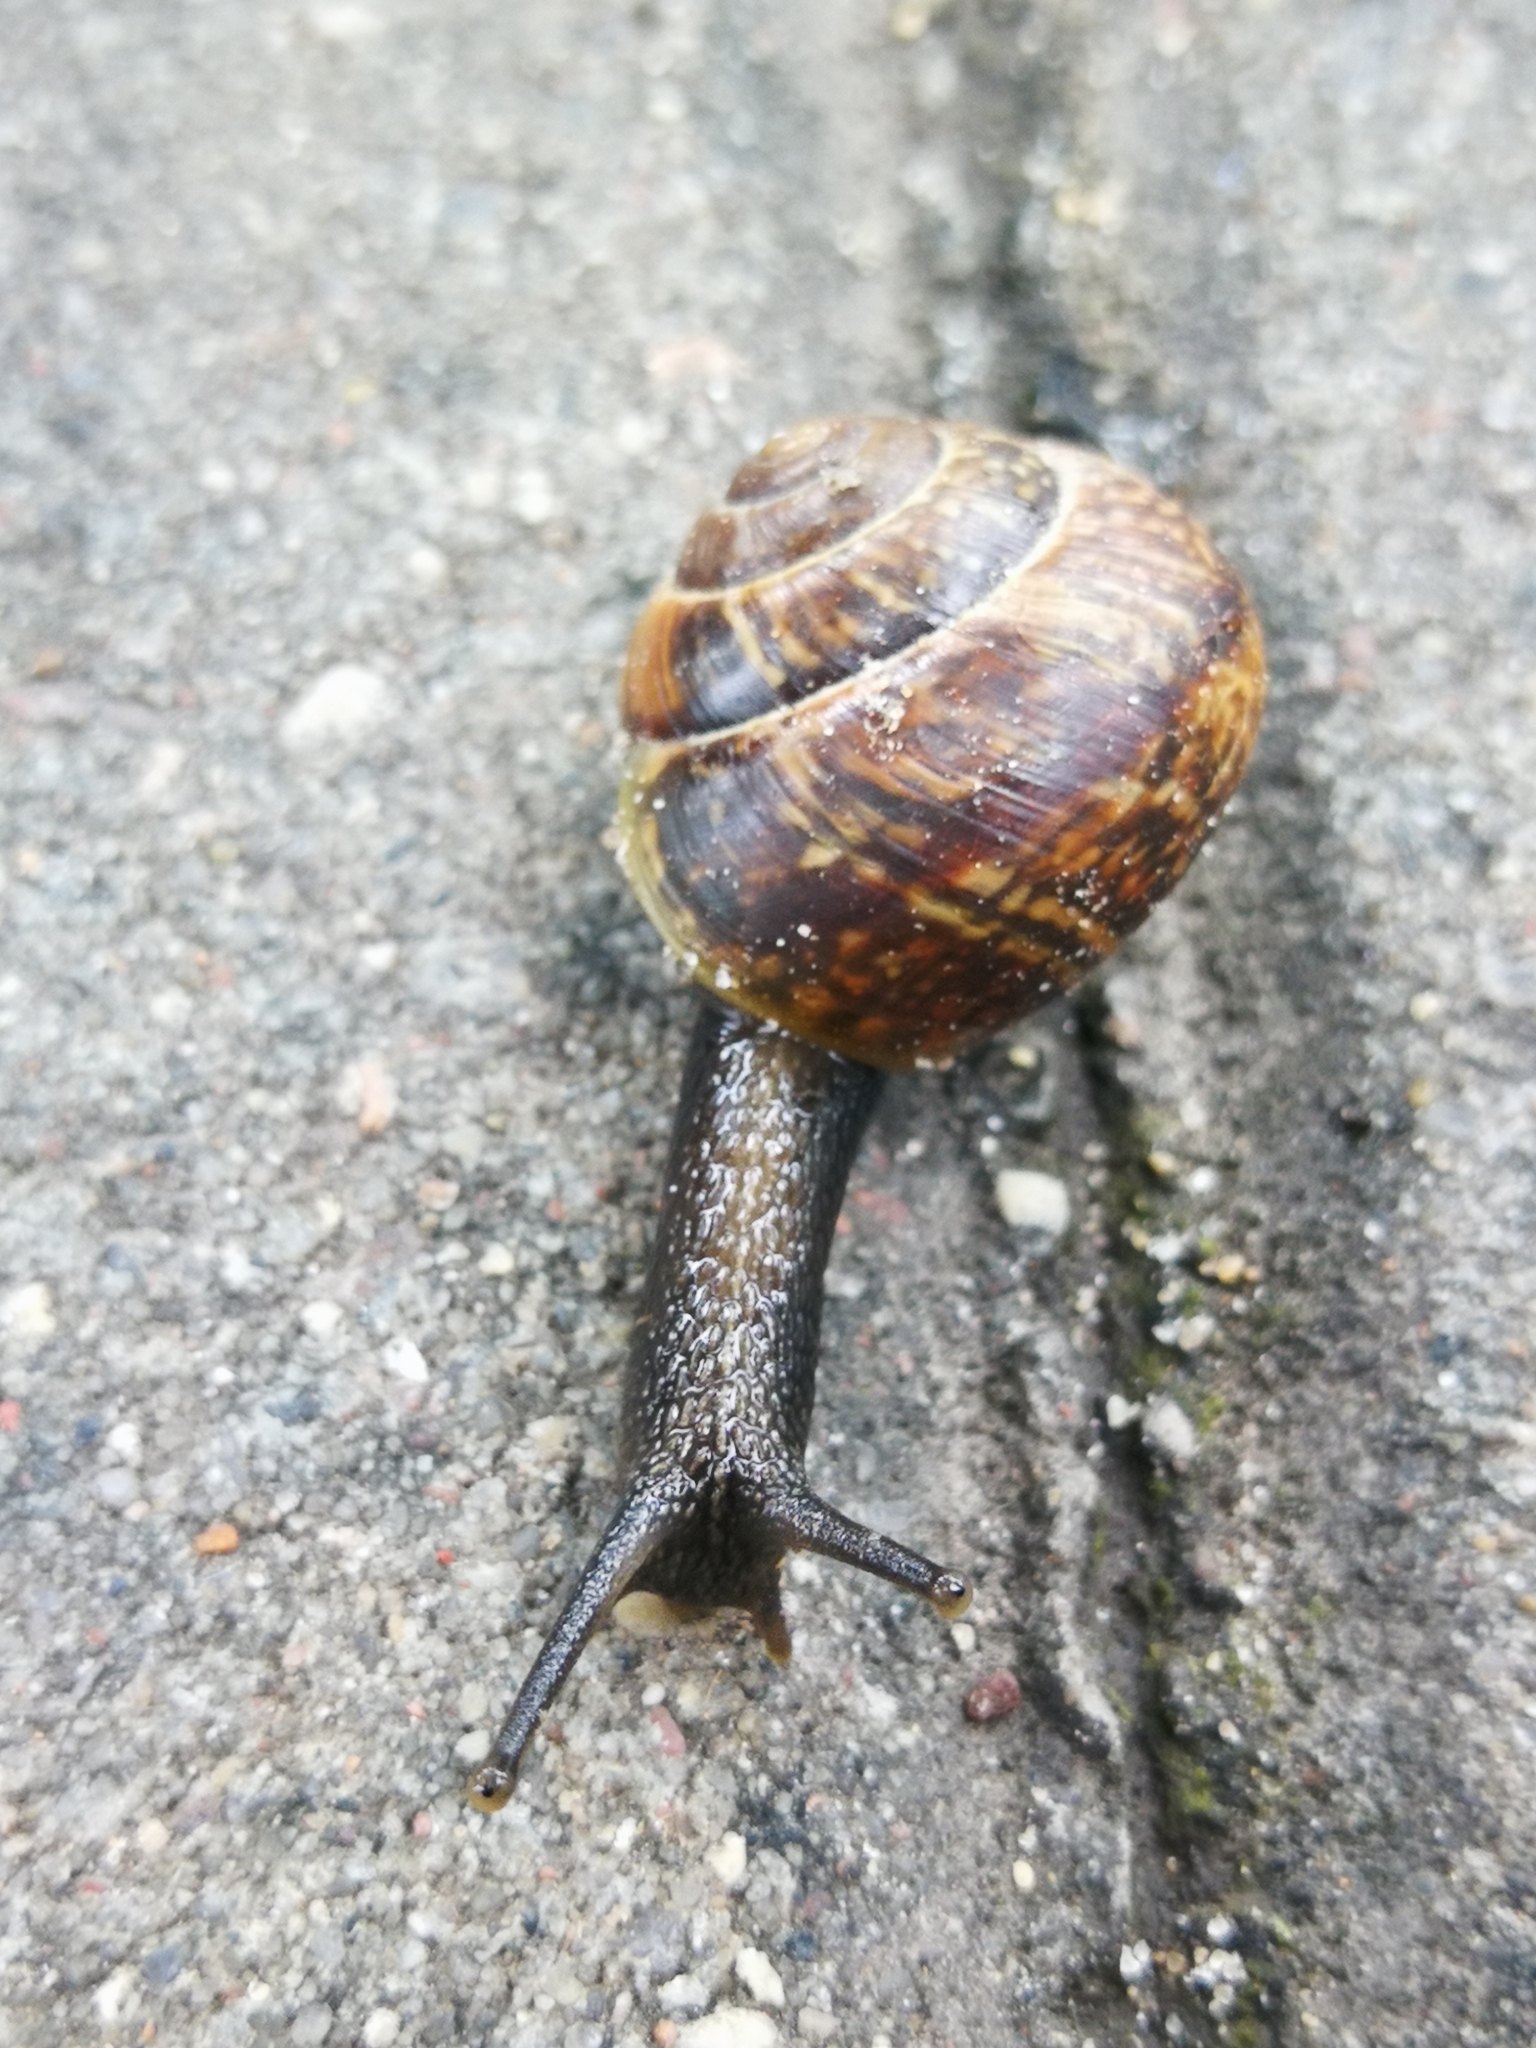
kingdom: Animalia
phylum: Mollusca
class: Gastropoda
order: Stylommatophora
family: Helicidae
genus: Arianta
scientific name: Arianta arbustorum
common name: Copse snail
